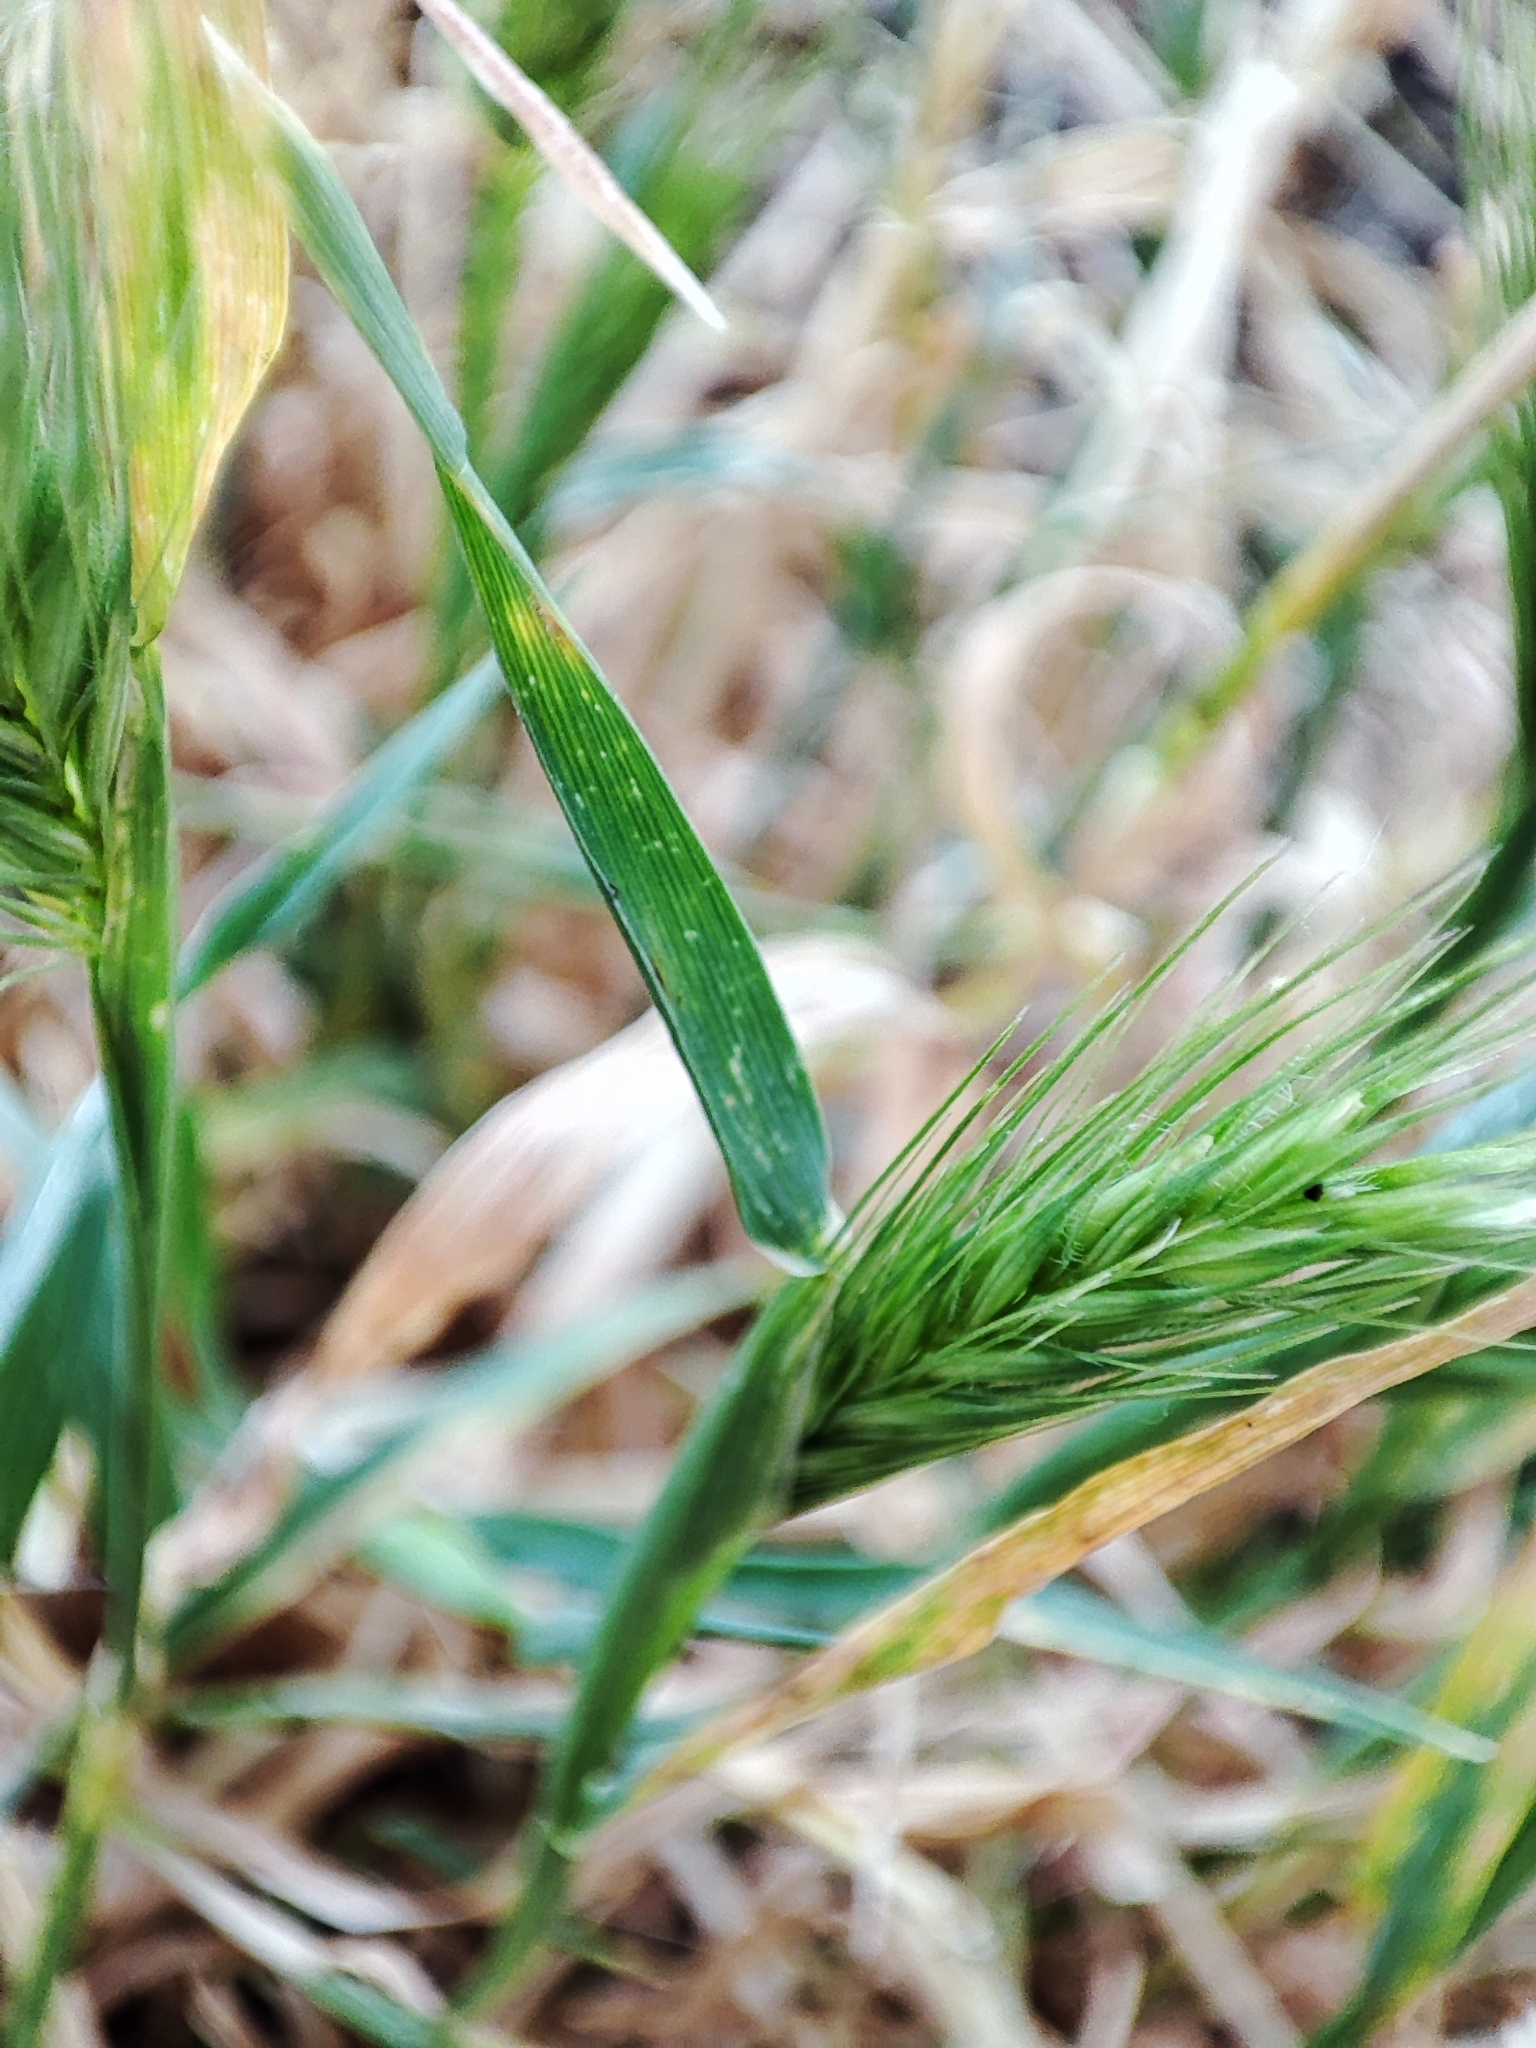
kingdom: Plantae
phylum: Tracheophyta
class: Liliopsida
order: Poales
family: Poaceae
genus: Hordeum
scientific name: Hordeum murinum
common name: Wall barley
